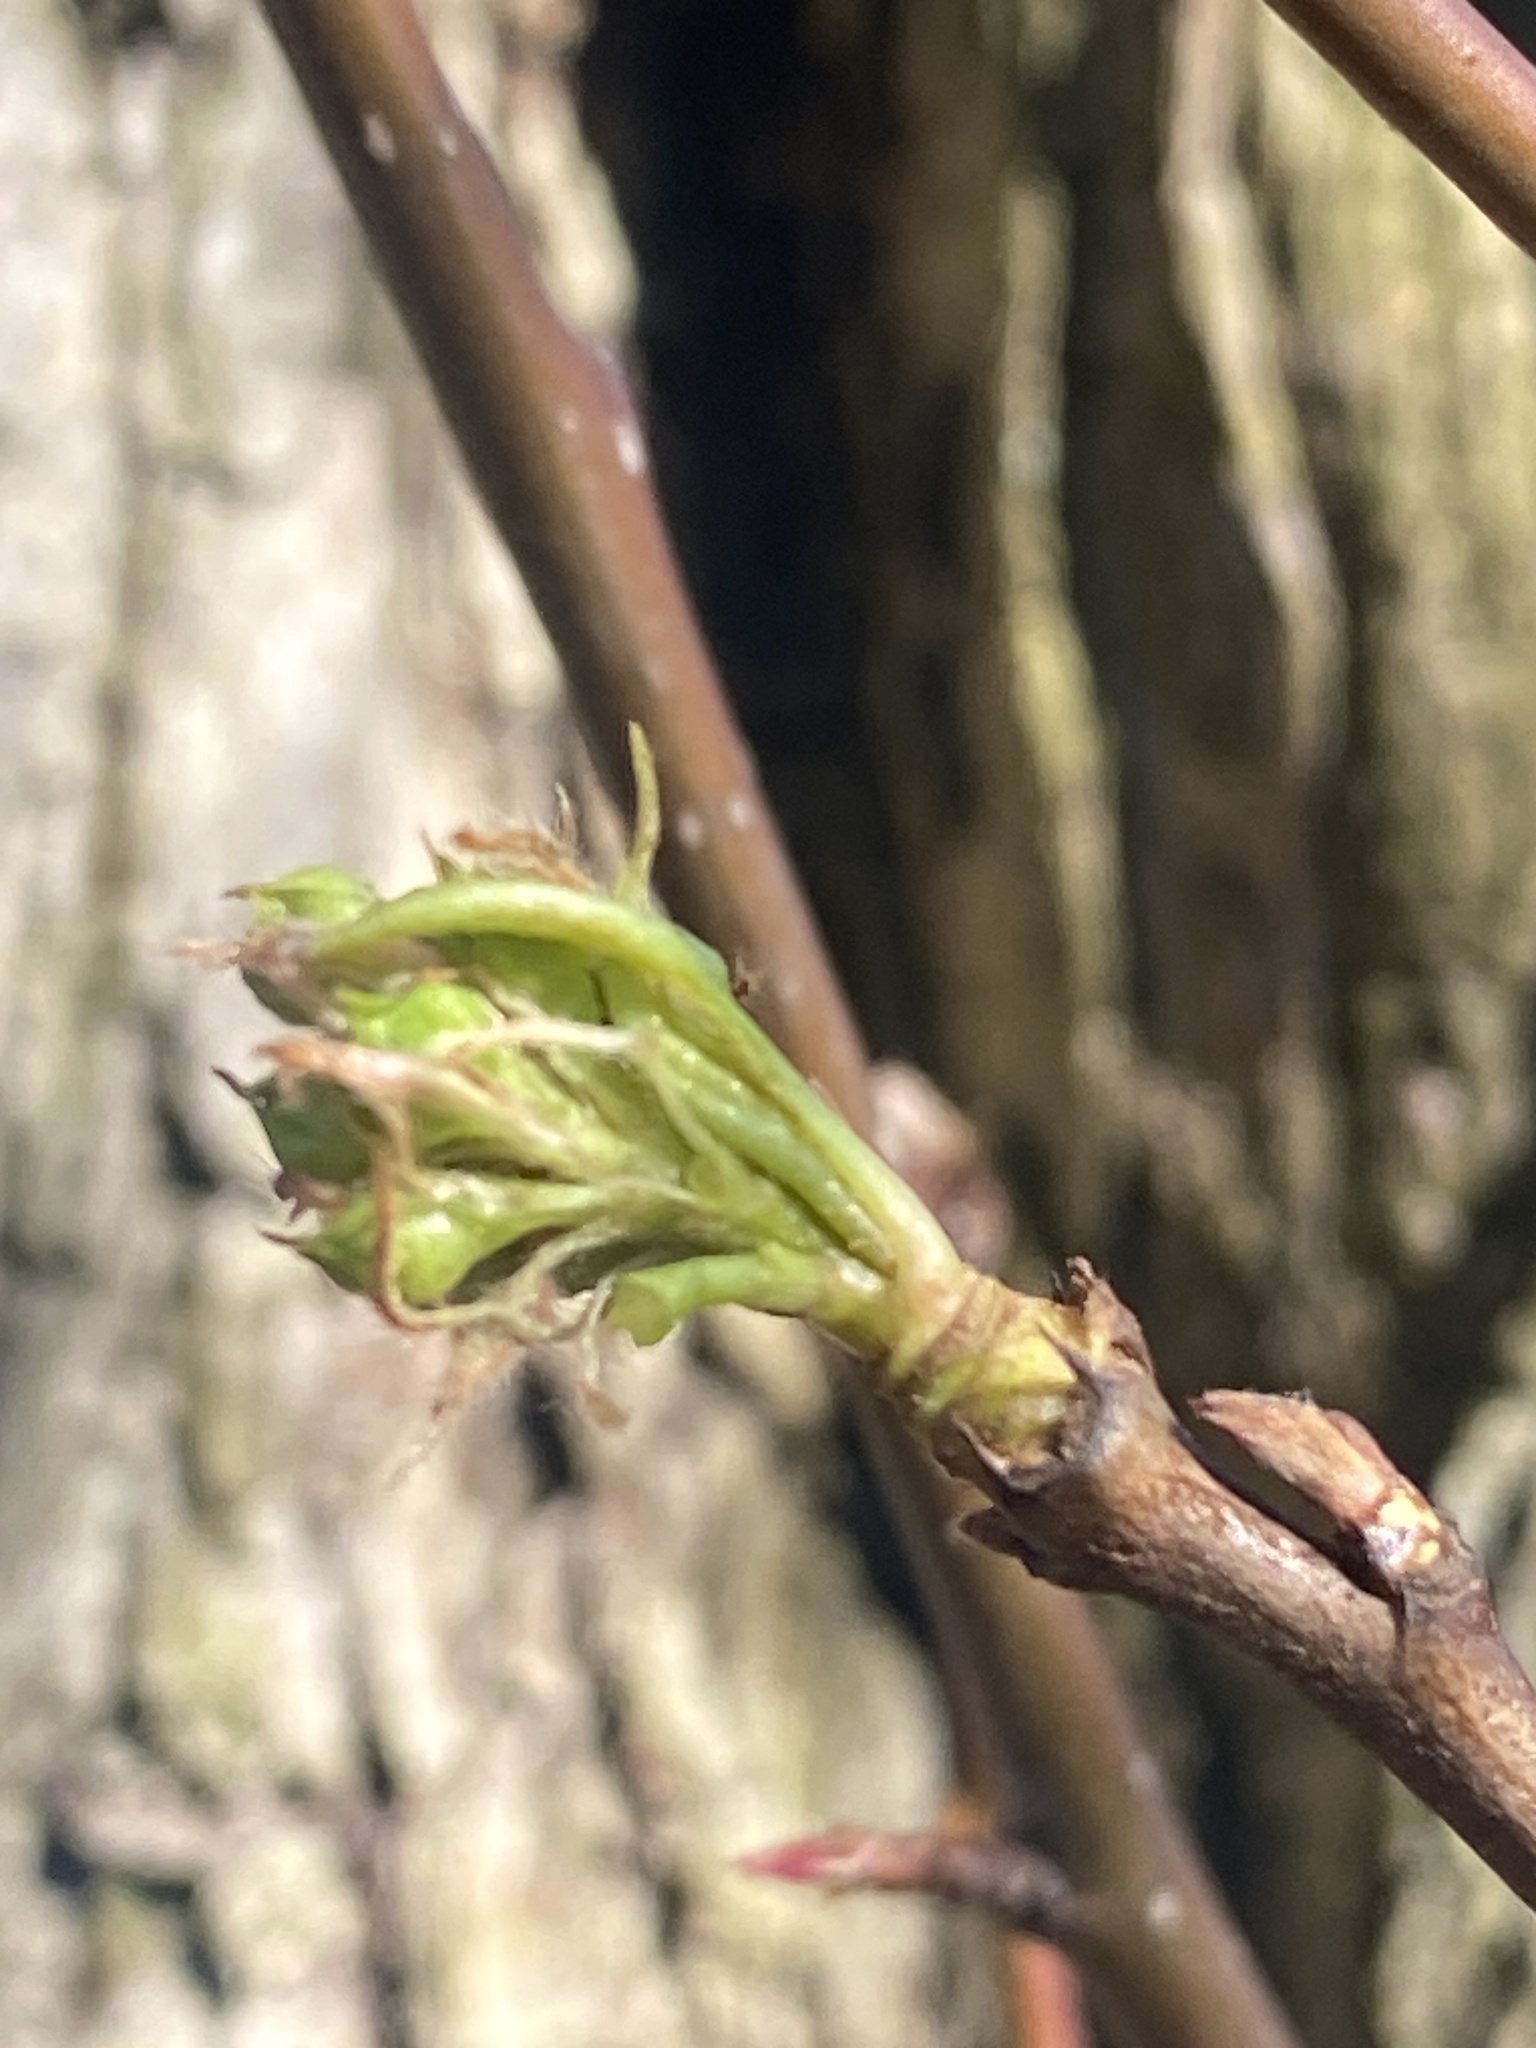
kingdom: Plantae
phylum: Tracheophyta
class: Magnoliopsida
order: Rosales
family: Rosaceae
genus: Pyrus
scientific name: Pyrus calleryana
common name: Callery pear
